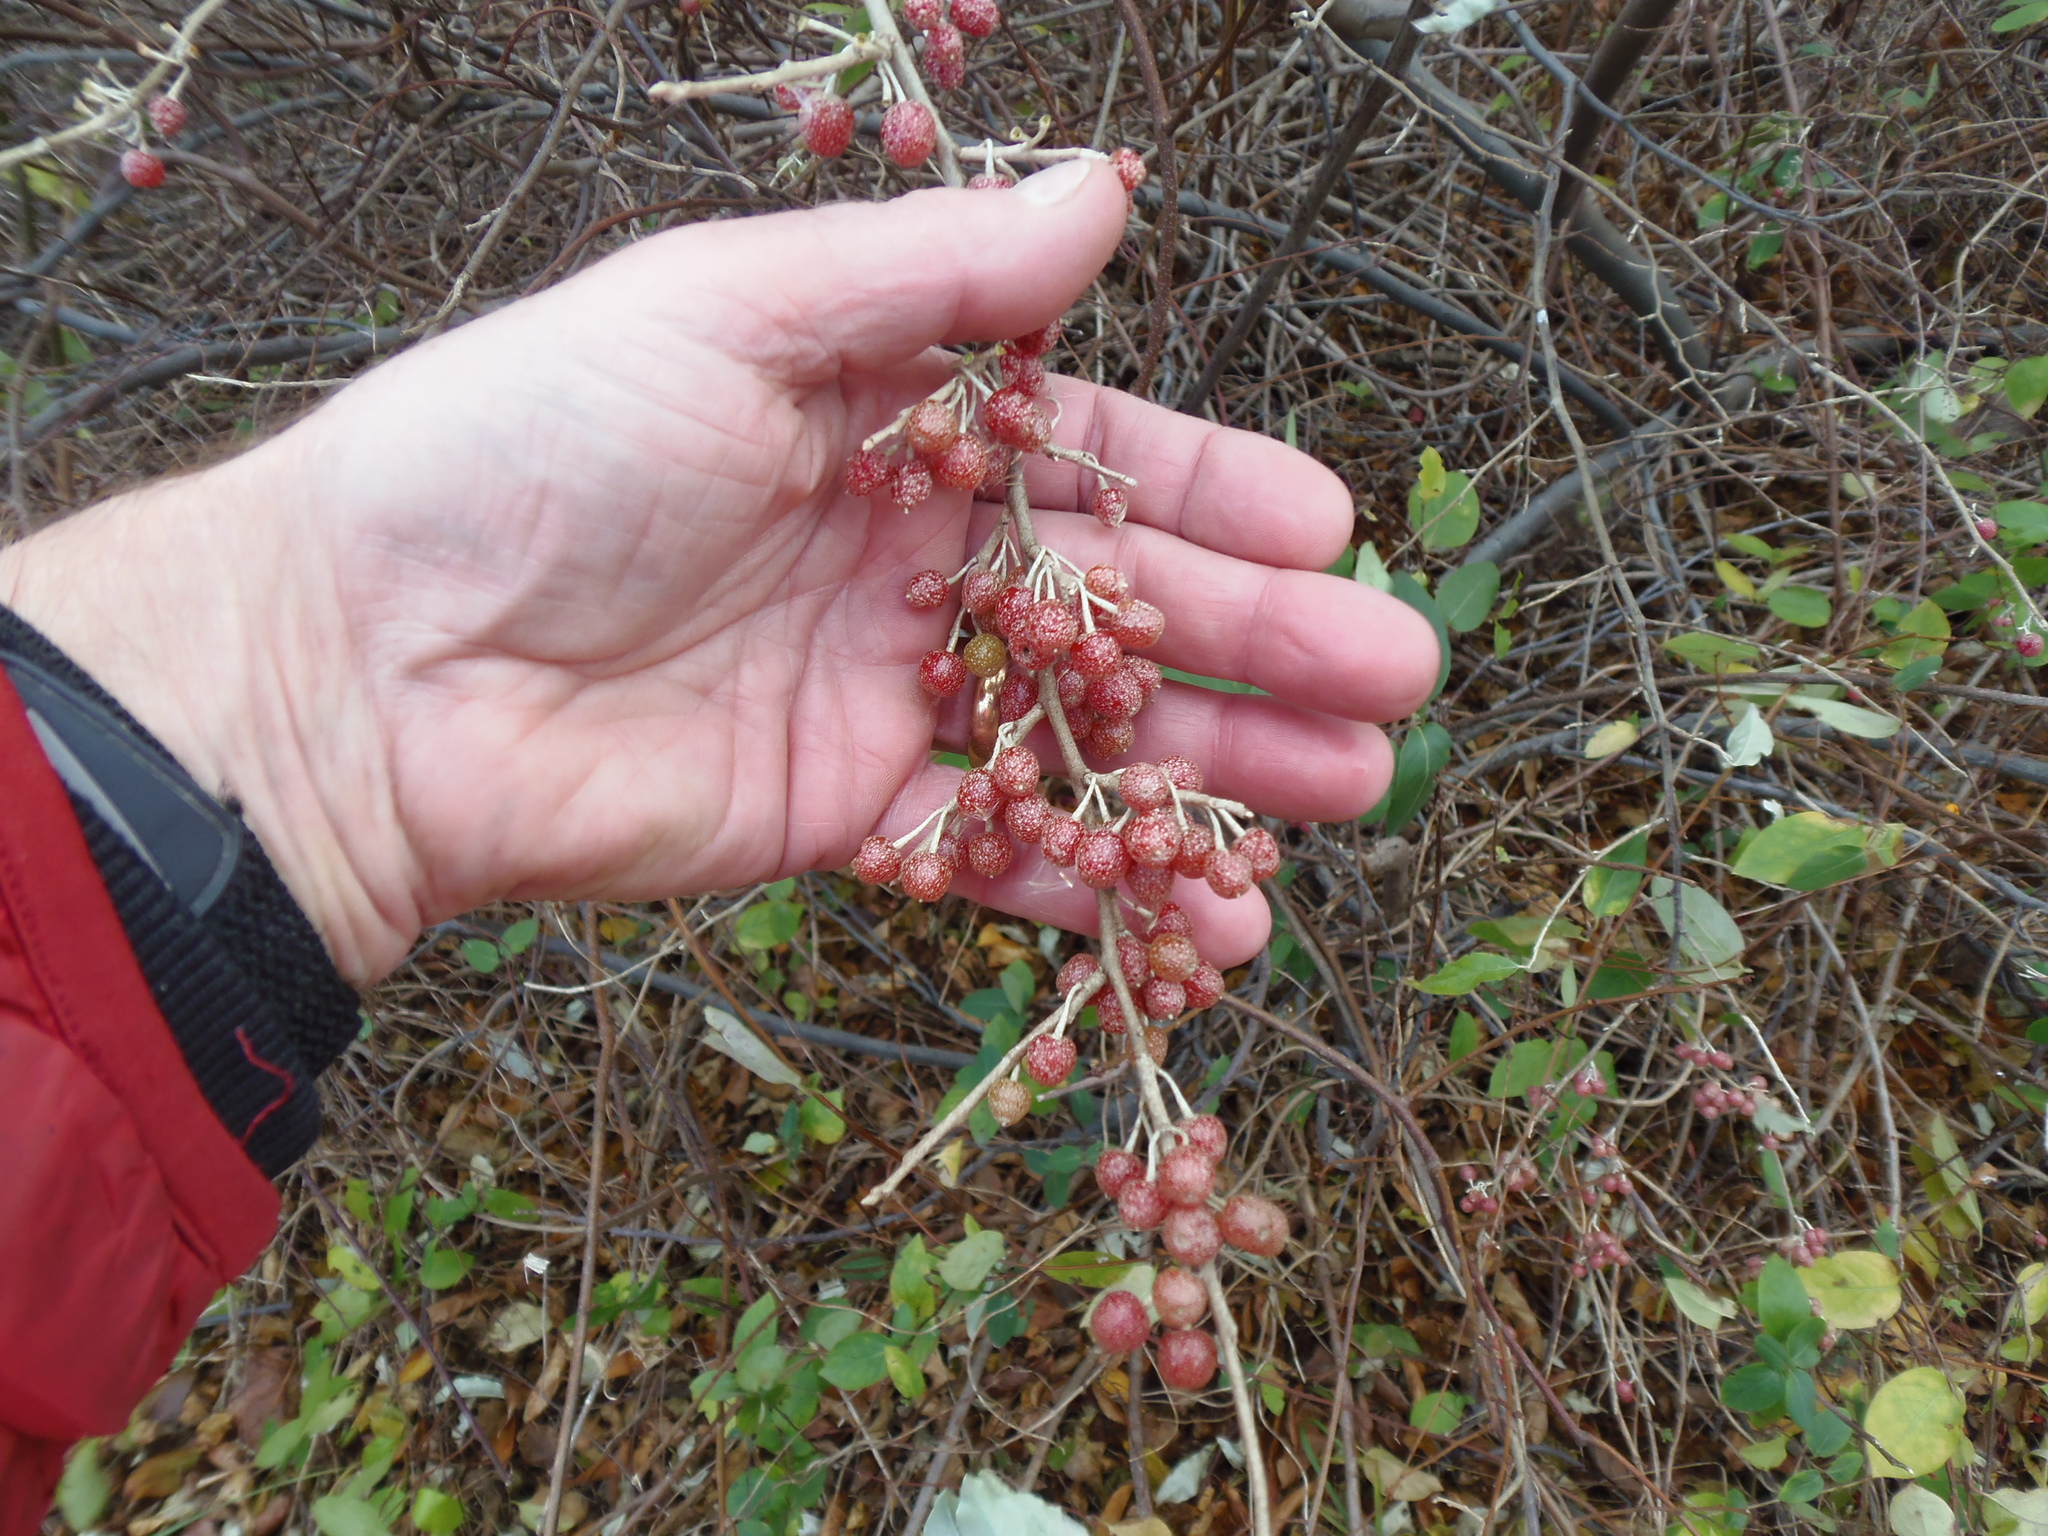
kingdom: Plantae
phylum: Tracheophyta
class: Magnoliopsida
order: Rosales
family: Elaeagnaceae
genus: Elaeagnus
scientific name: Elaeagnus umbellata
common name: Autumn olive
